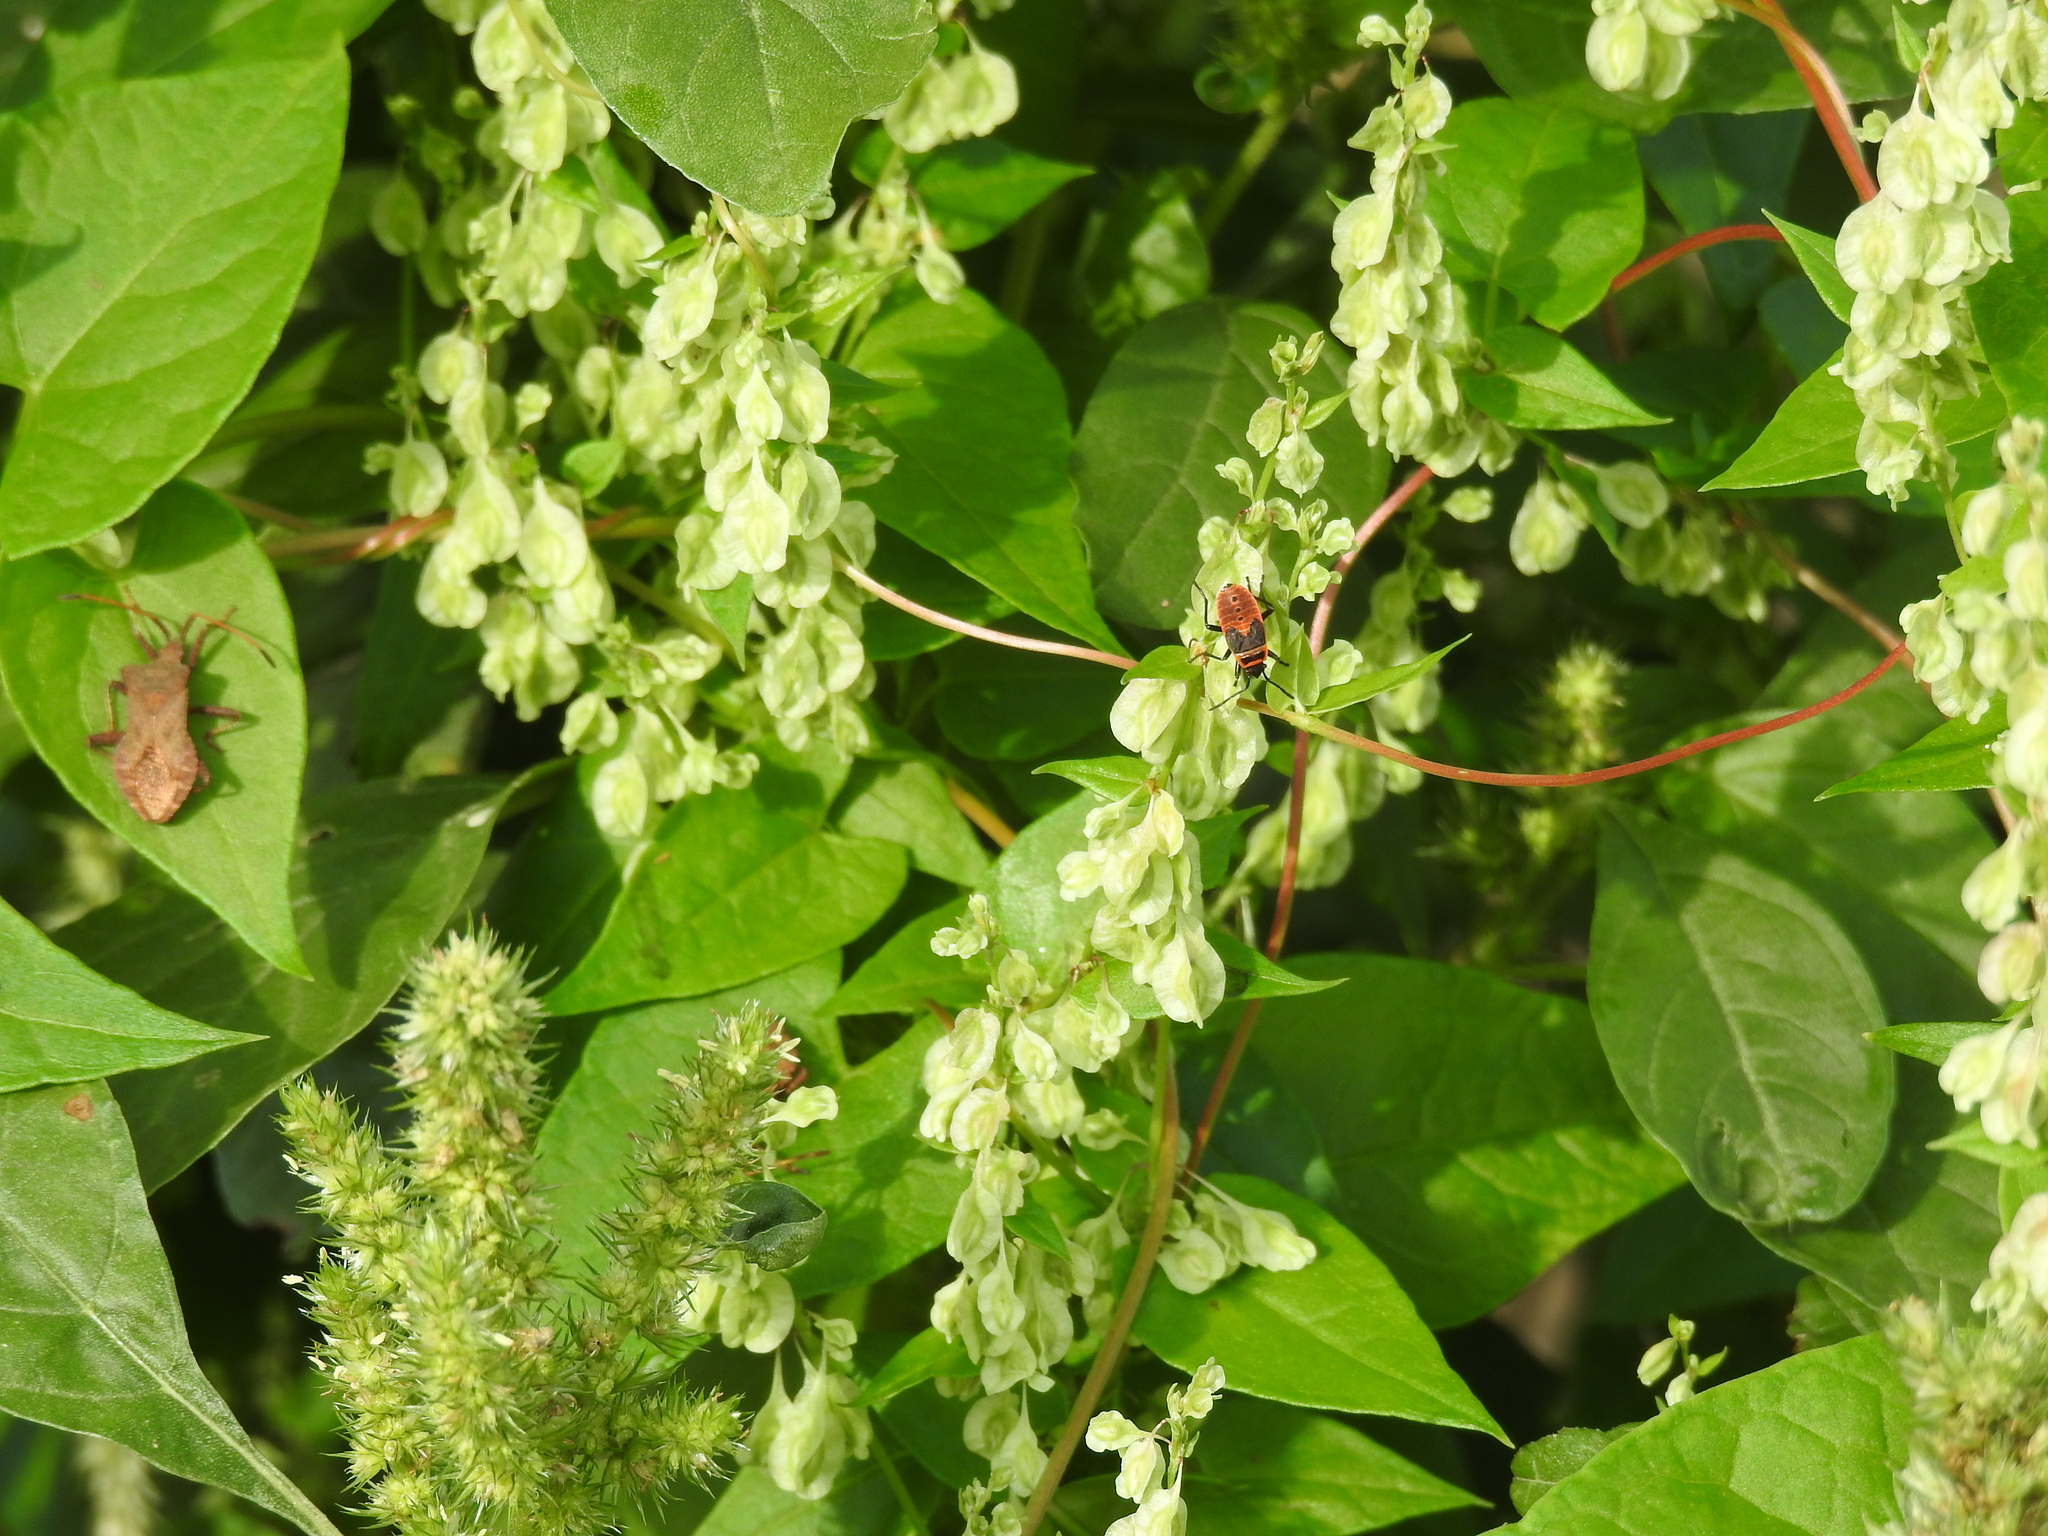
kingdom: Plantae
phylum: Tracheophyta
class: Magnoliopsida
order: Caryophyllales
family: Polygonaceae
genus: Fallopia
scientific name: Fallopia dumetorum
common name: Copse-bindweed
